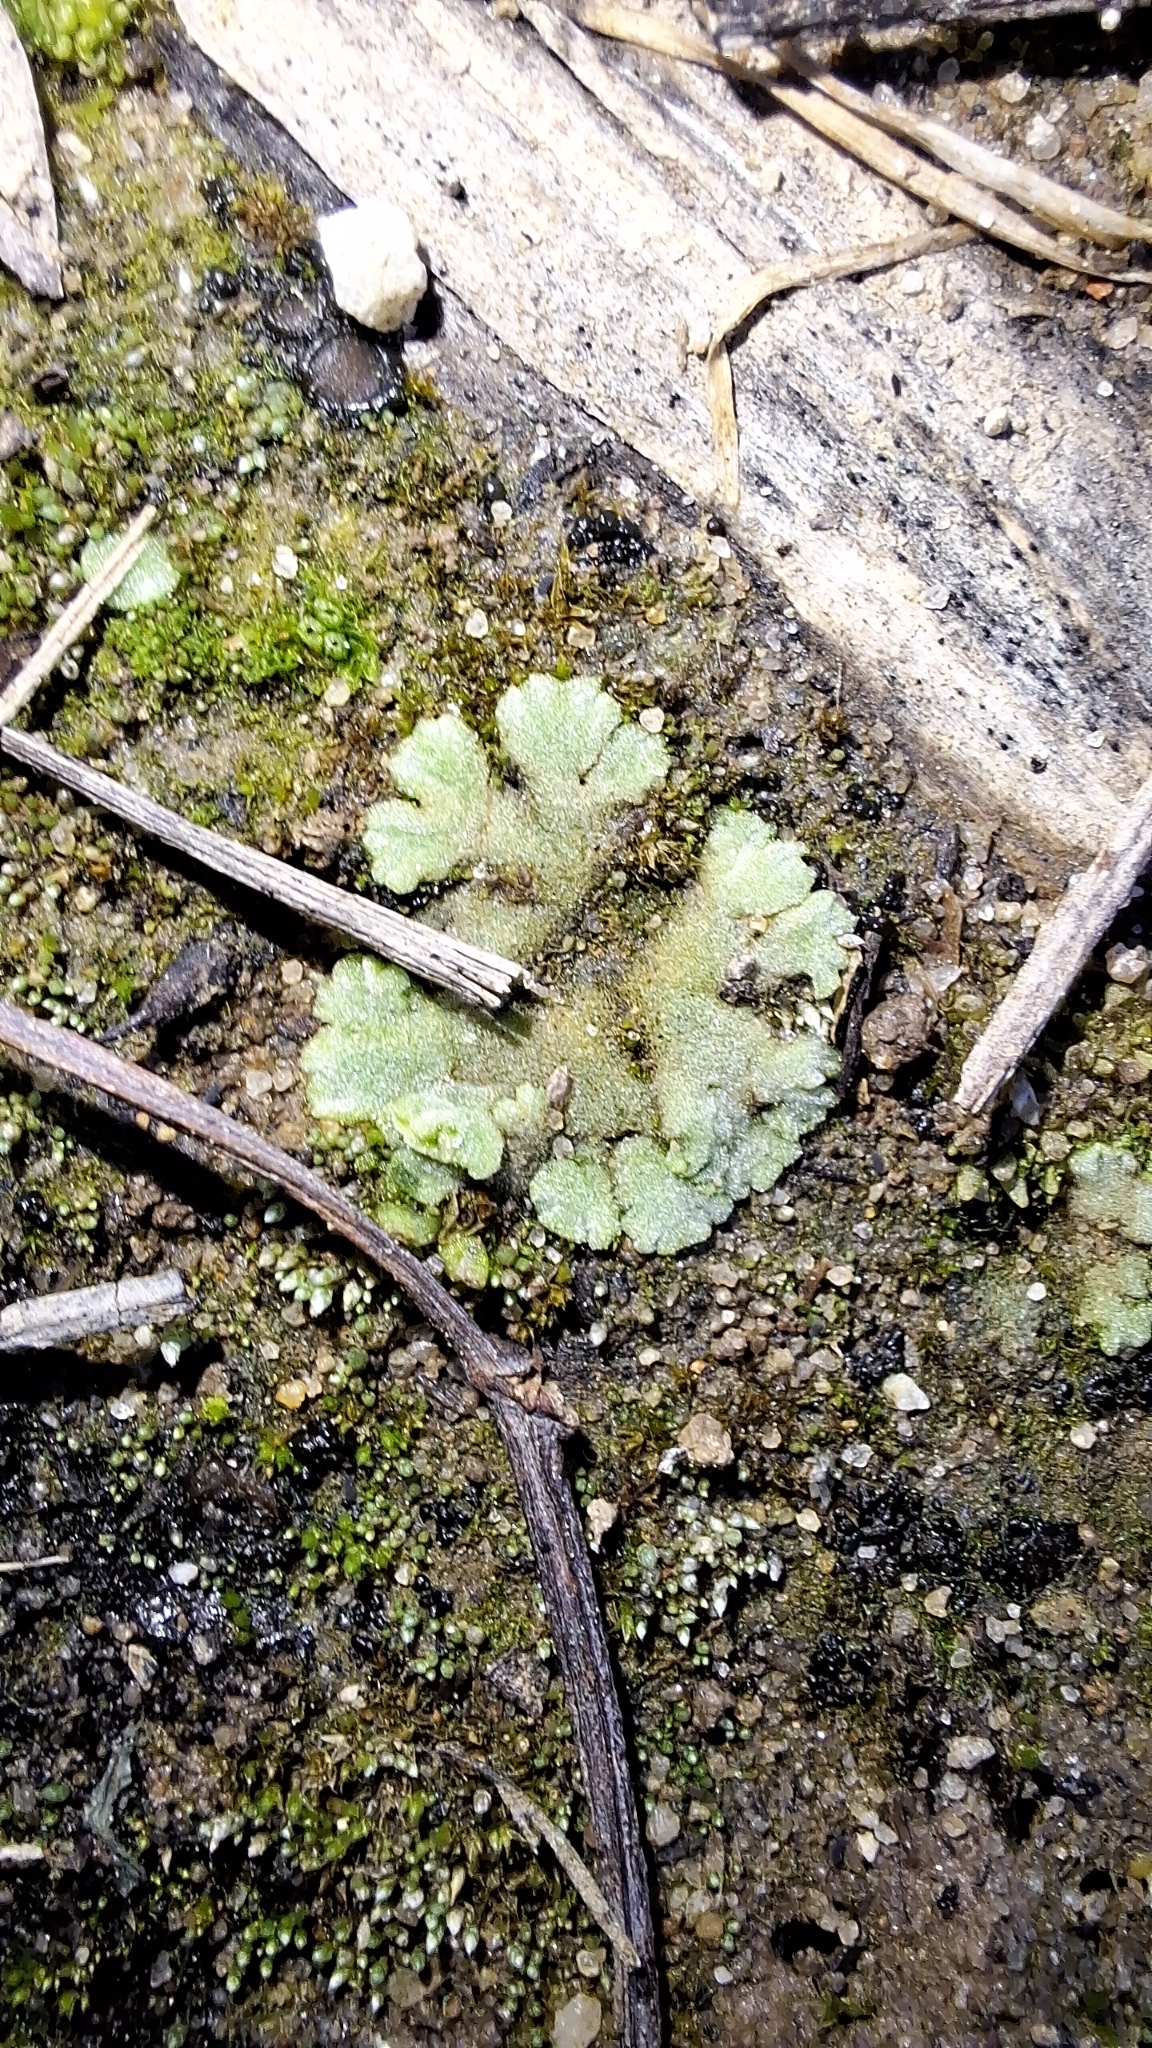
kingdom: Plantae
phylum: Marchantiophyta
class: Marchantiopsida
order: Marchantiales
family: Ricciaceae
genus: Riccia
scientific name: Riccia crystallina
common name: Blue crystalwort
